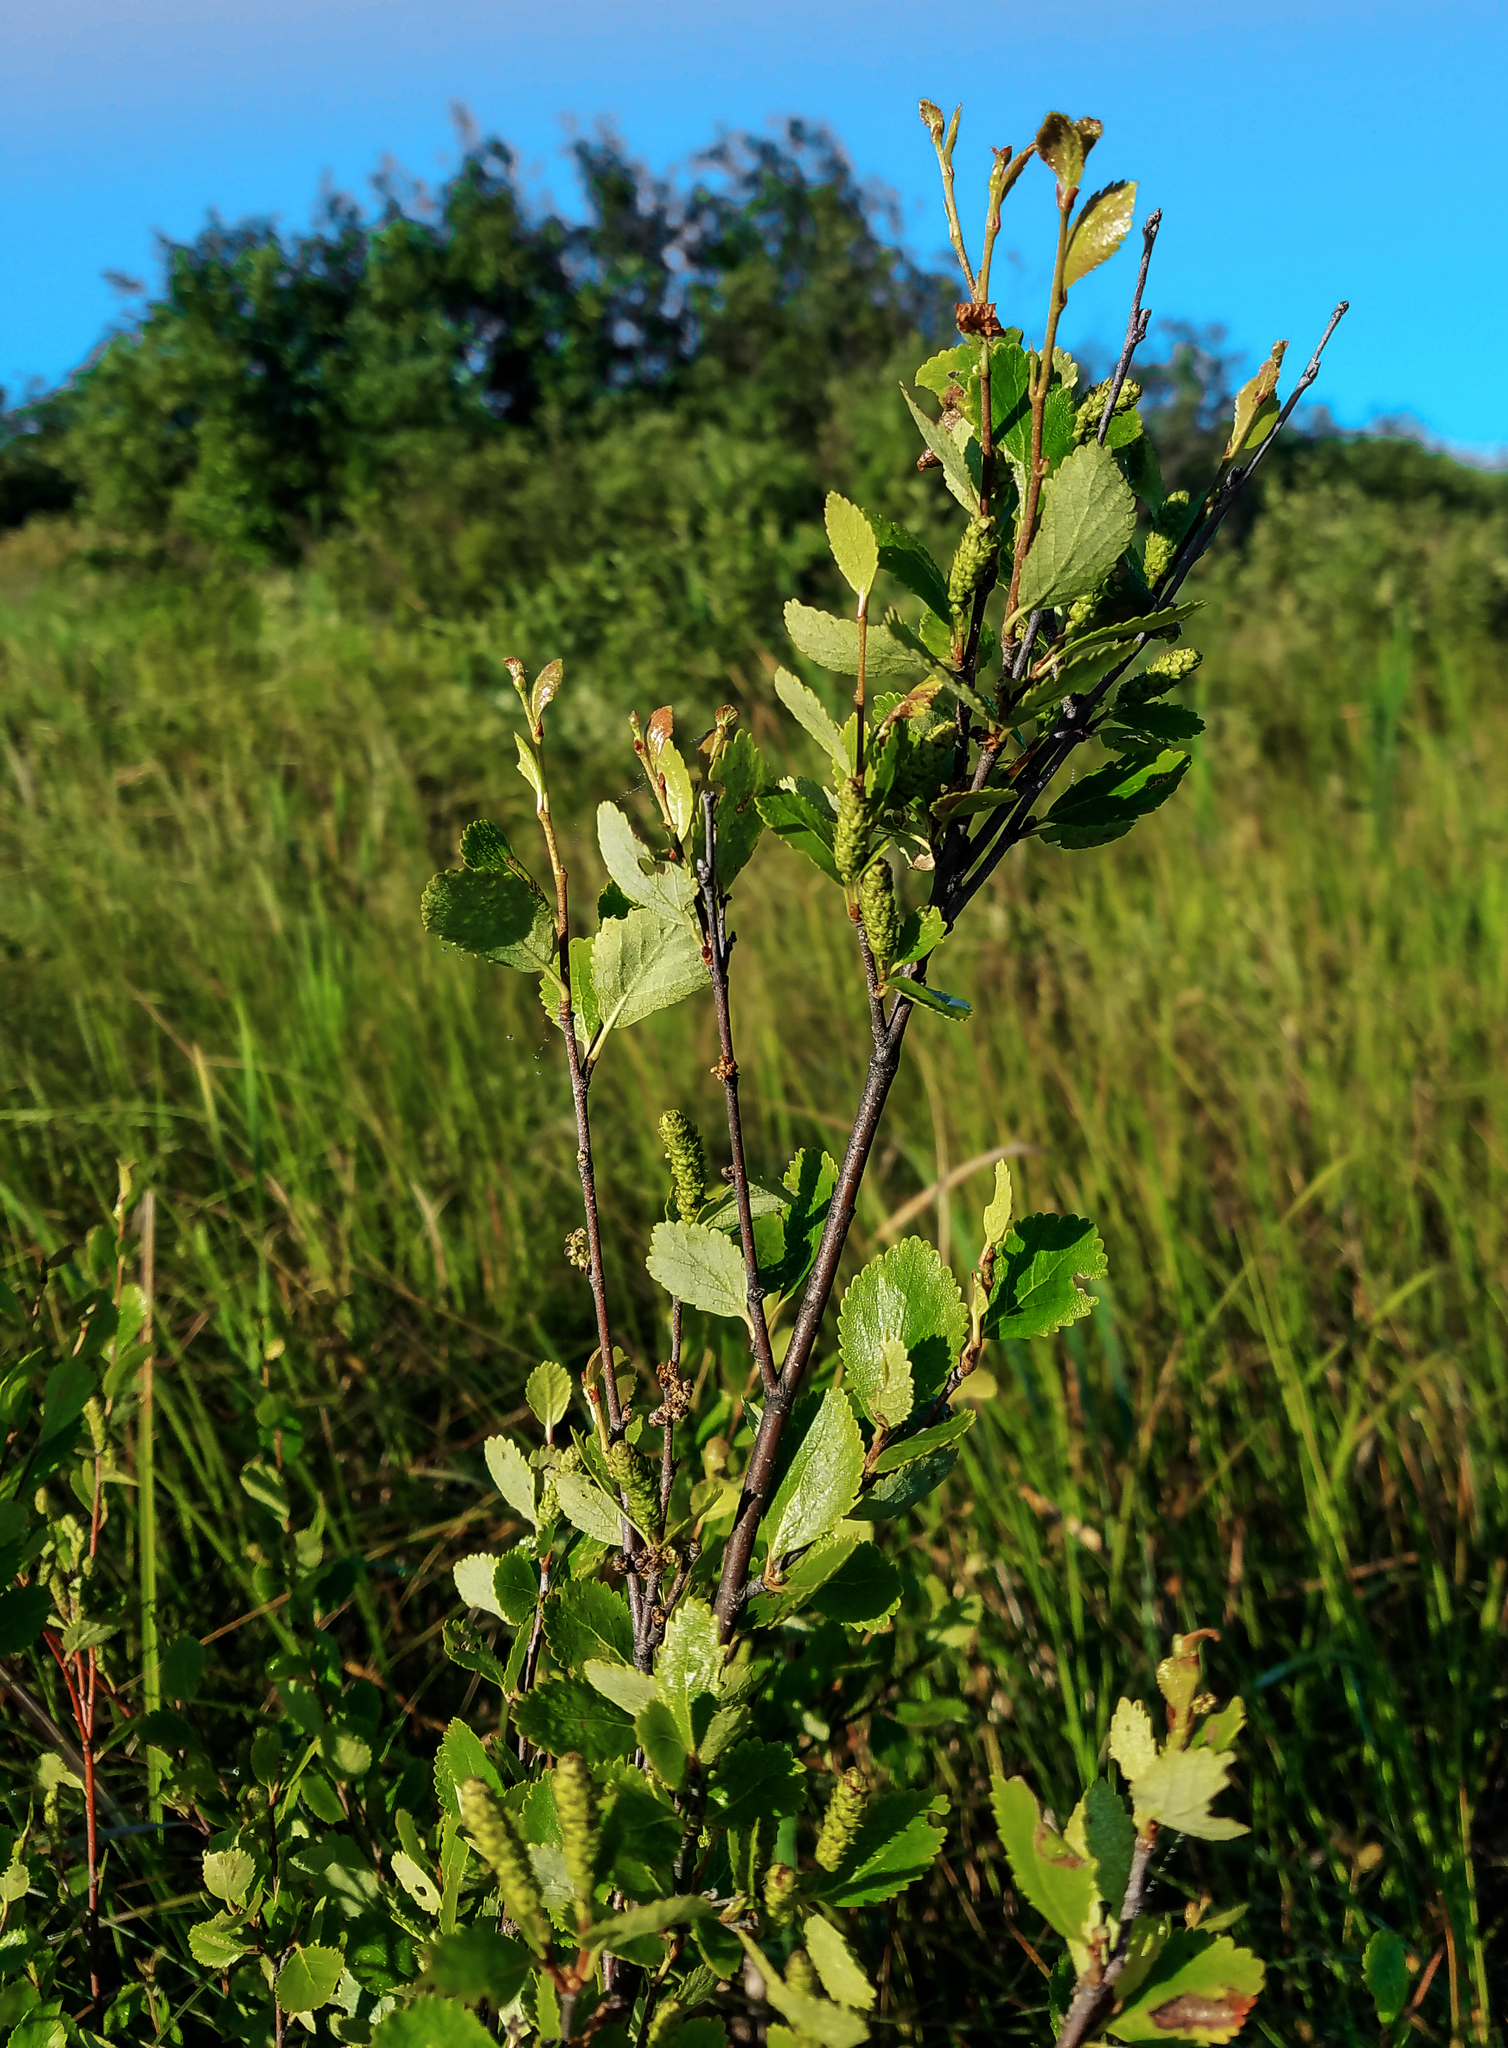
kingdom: Plantae
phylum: Tracheophyta
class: Magnoliopsida
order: Fagales
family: Betulaceae
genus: Betula
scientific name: Betula pumila
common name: Bog birch
